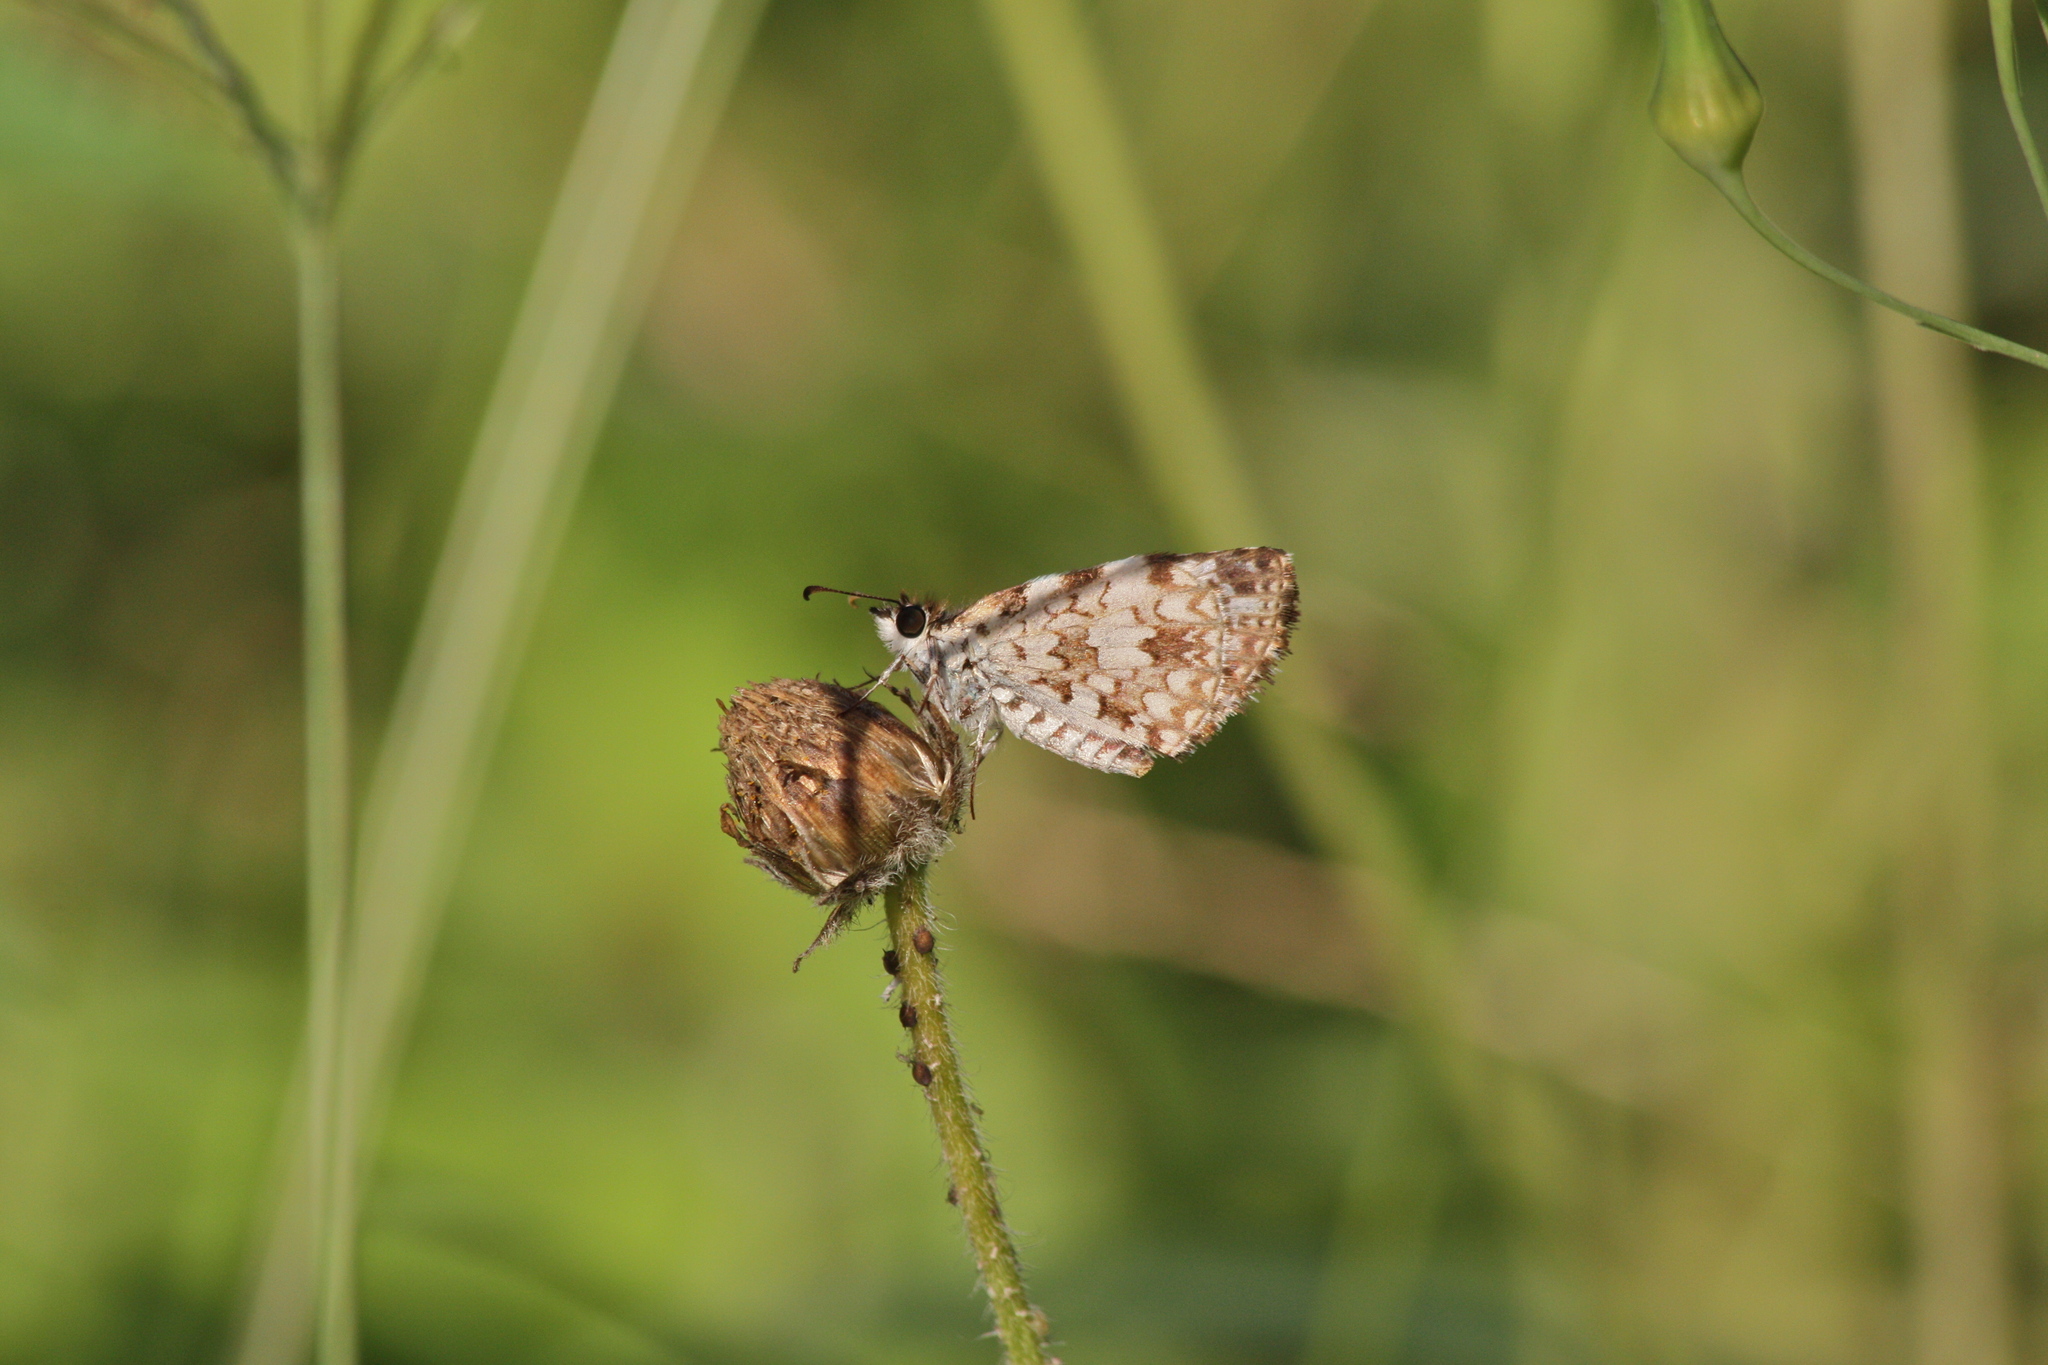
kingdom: Animalia
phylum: Arthropoda
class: Insecta
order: Lepidoptera
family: Hesperiidae
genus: Pyrgus
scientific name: Pyrgus oileus
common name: Tropical checkered-skipper
